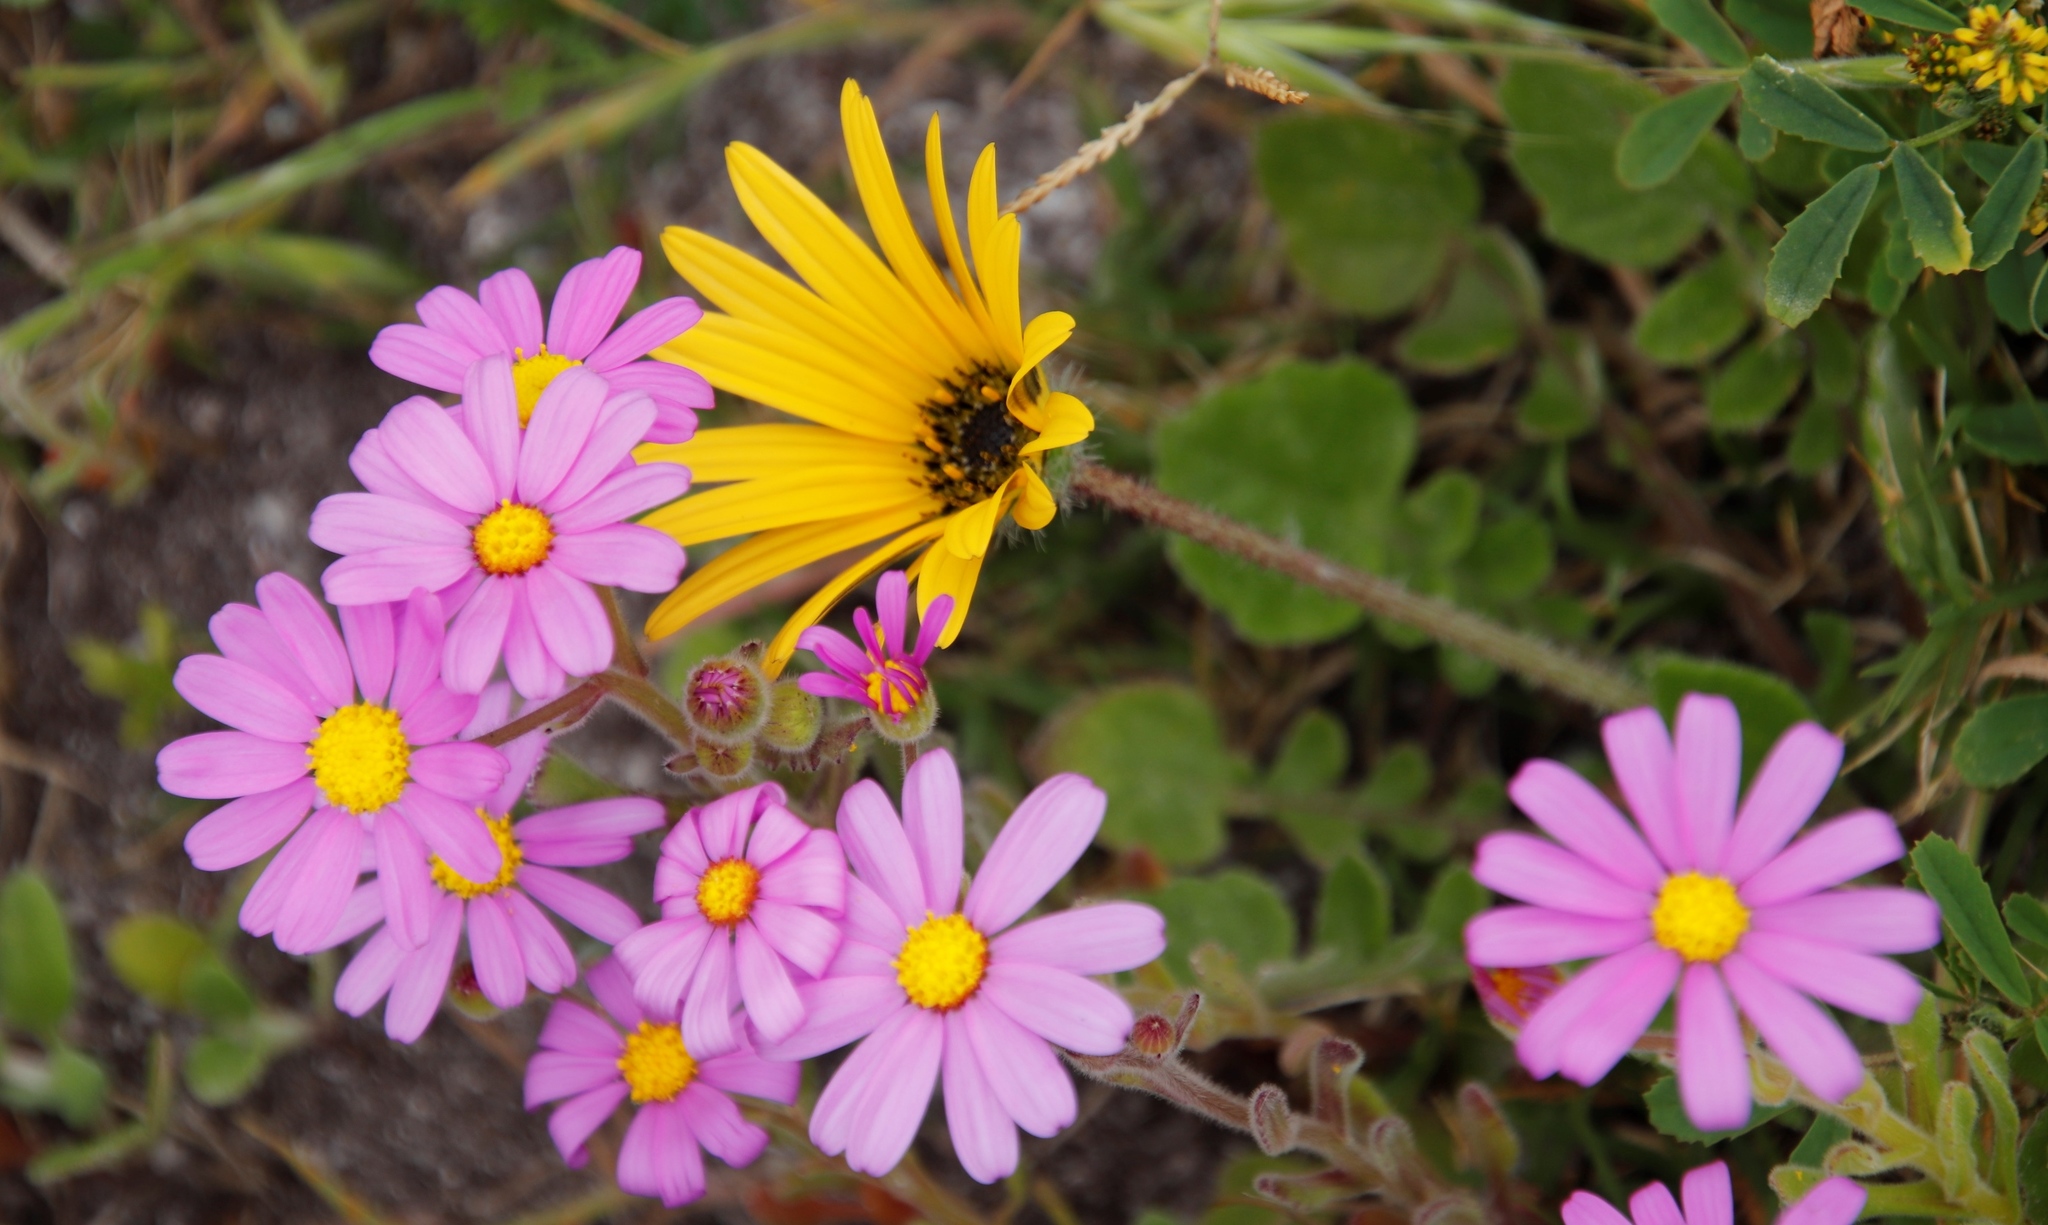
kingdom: Plantae
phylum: Tracheophyta
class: Magnoliopsida
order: Asterales
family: Asteraceae
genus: Arctotheca
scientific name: Arctotheca calendula
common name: Capeweed
